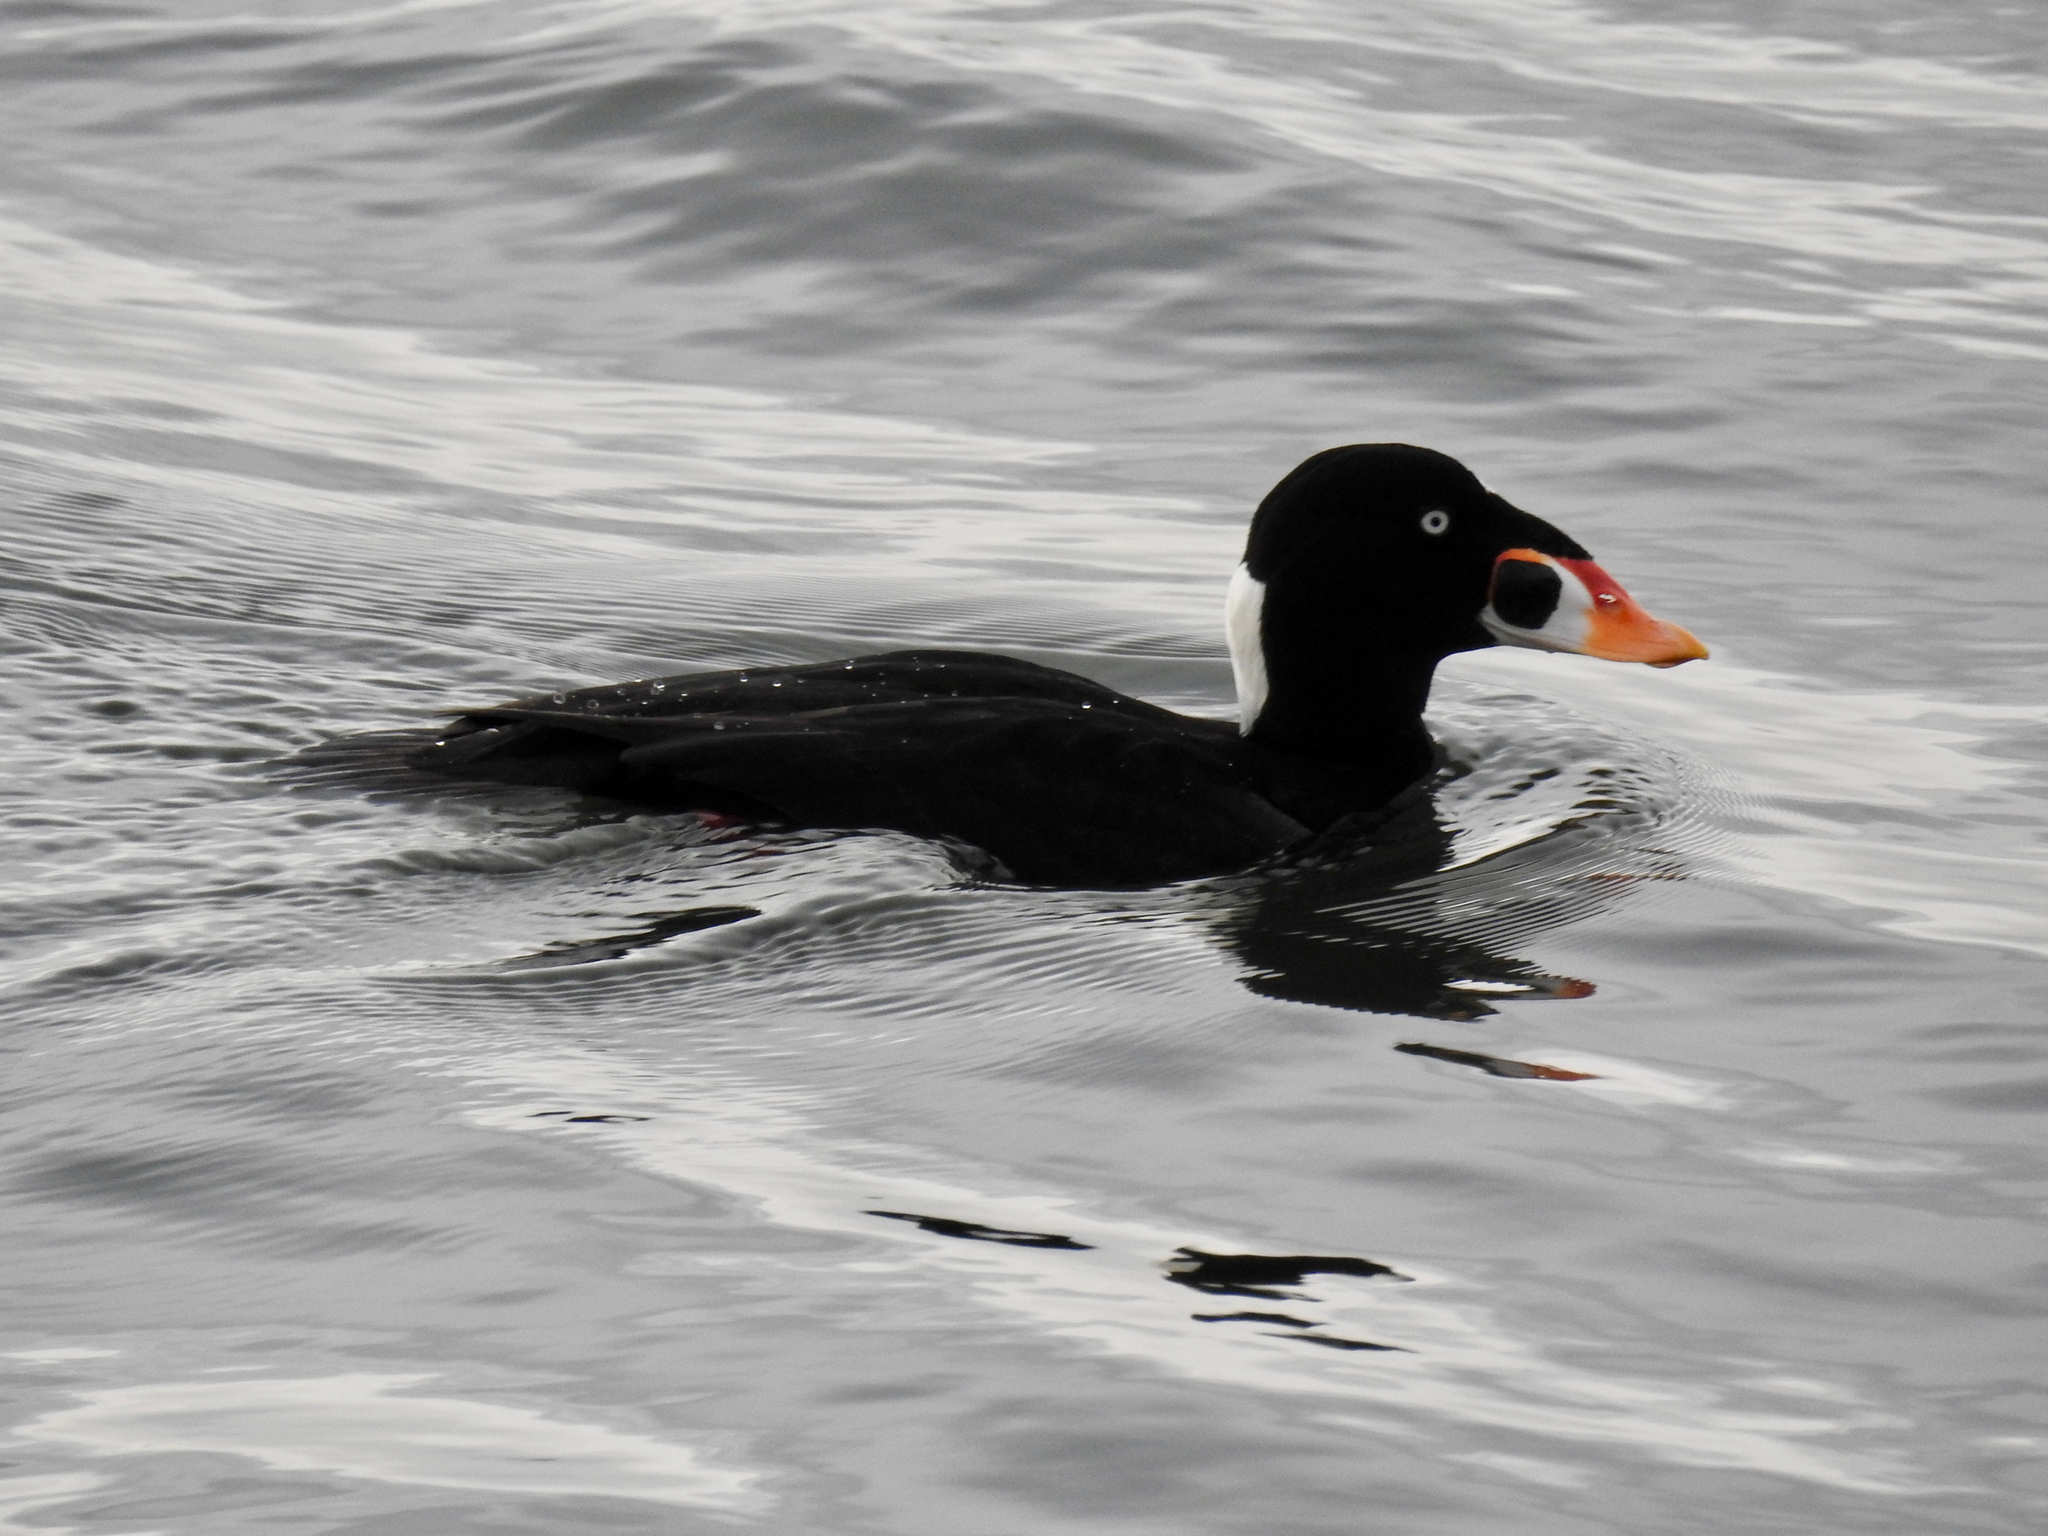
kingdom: Animalia
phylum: Chordata
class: Aves
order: Anseriformes
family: Anatidae
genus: Melanitta
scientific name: Melanitta perspicillata
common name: Surf scoter
